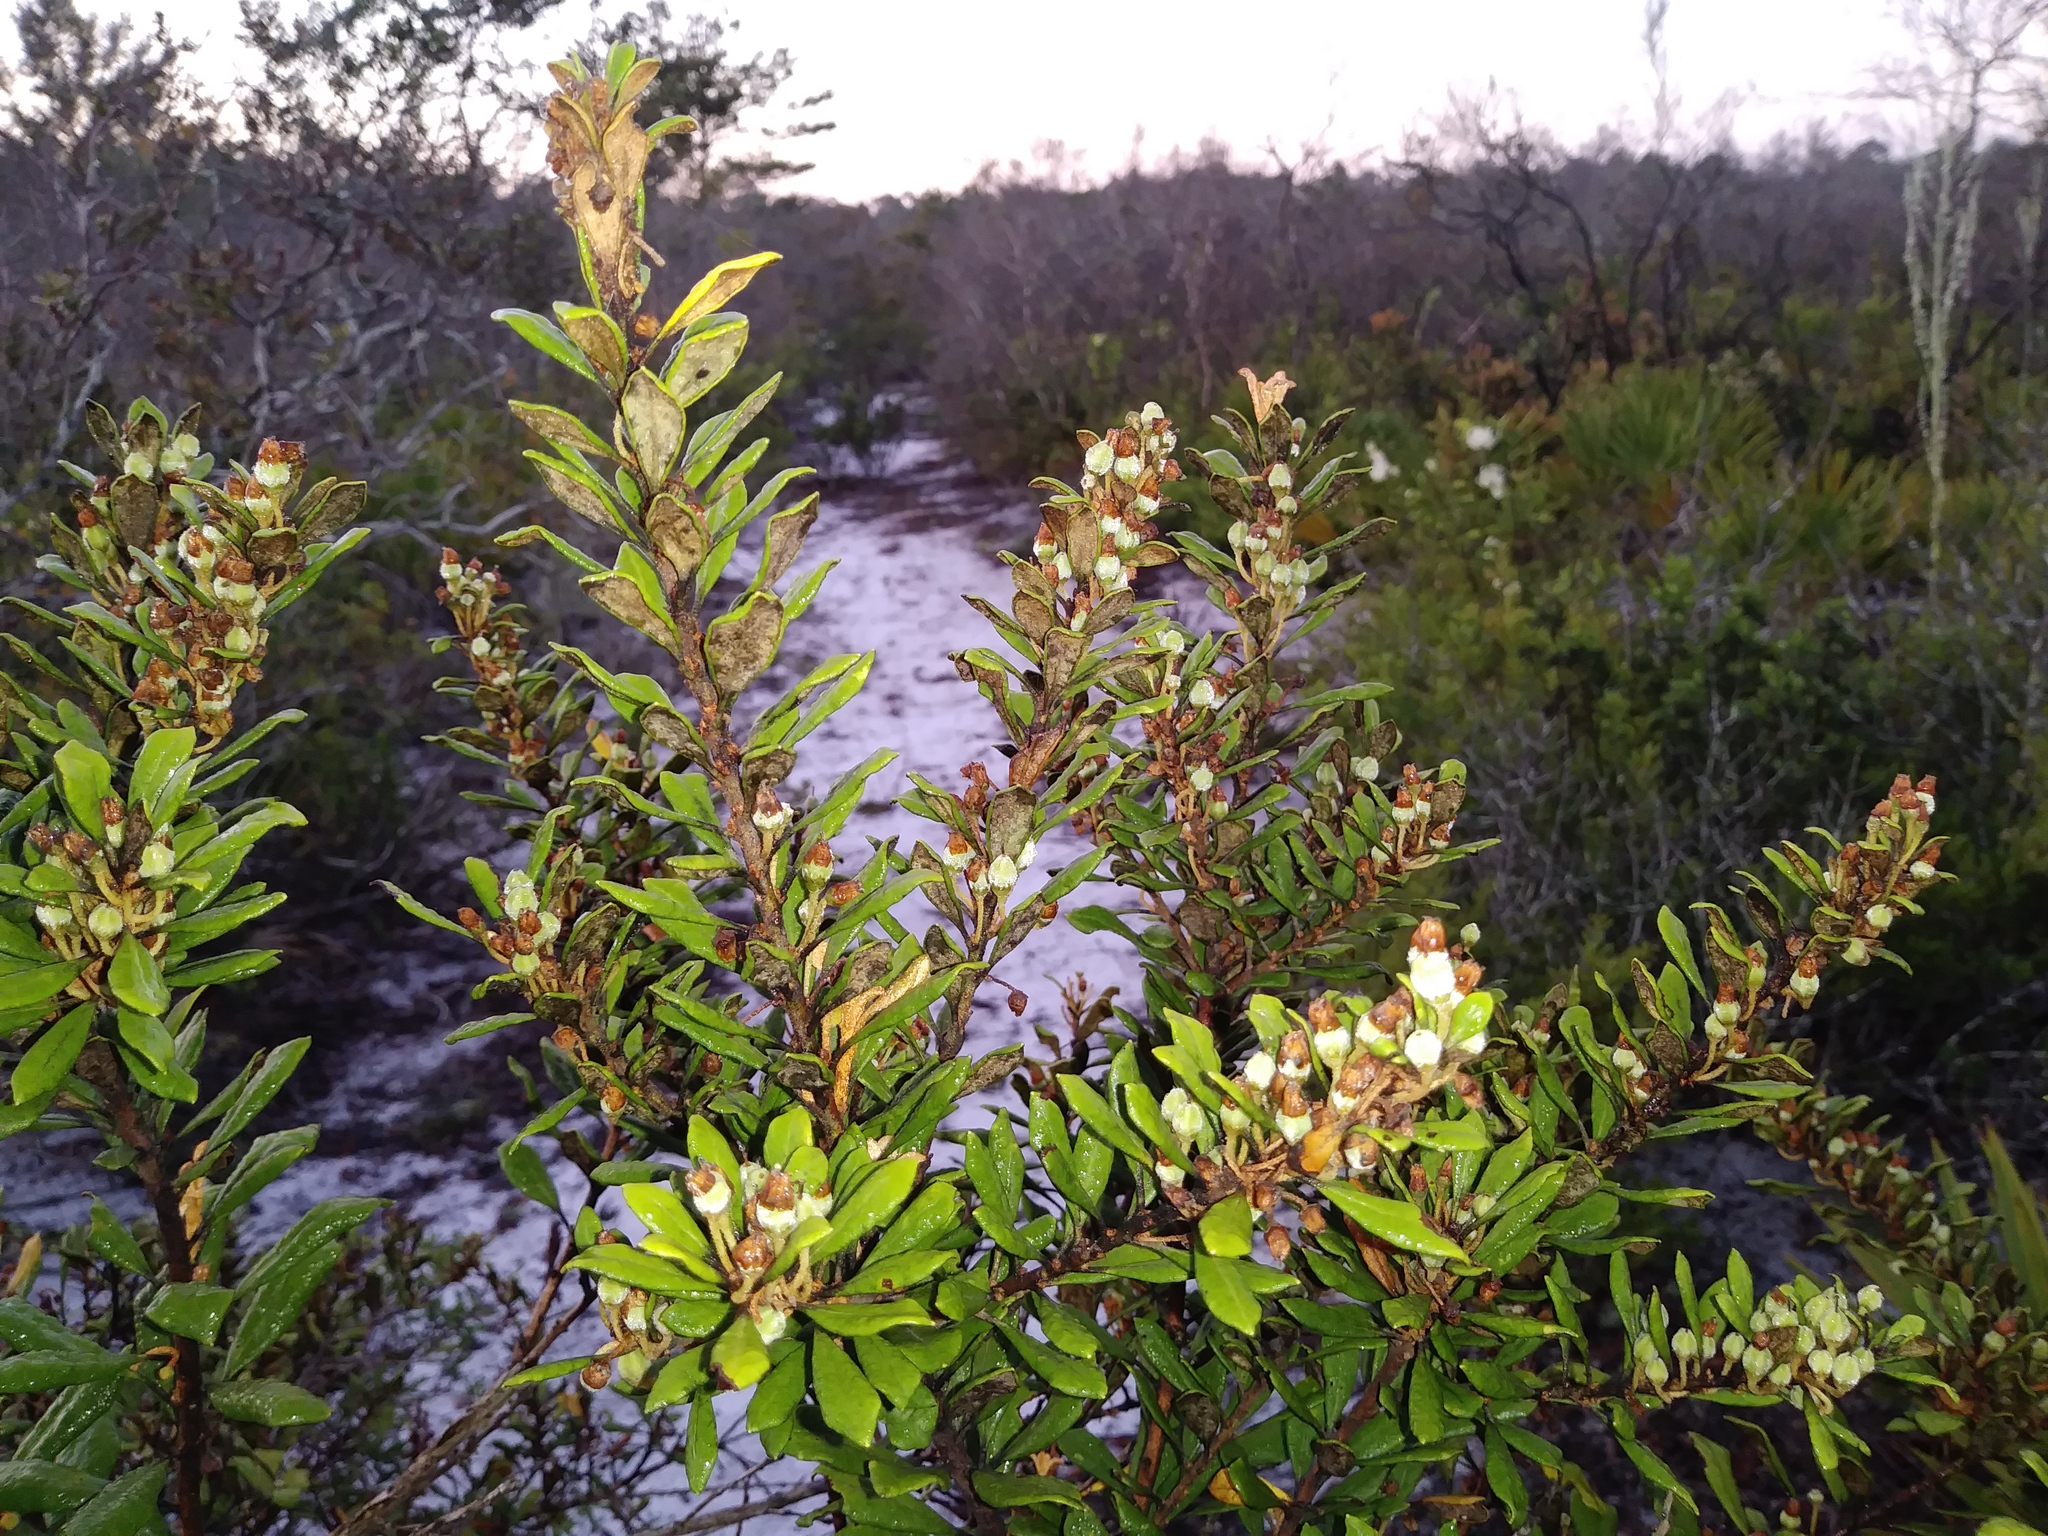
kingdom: Plantae
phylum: Tracheophyta
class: Magnoliopsida
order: Ericales
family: Ericaceae
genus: Lyonia
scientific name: Lyonia ferruginea
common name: Rusty lyonia
